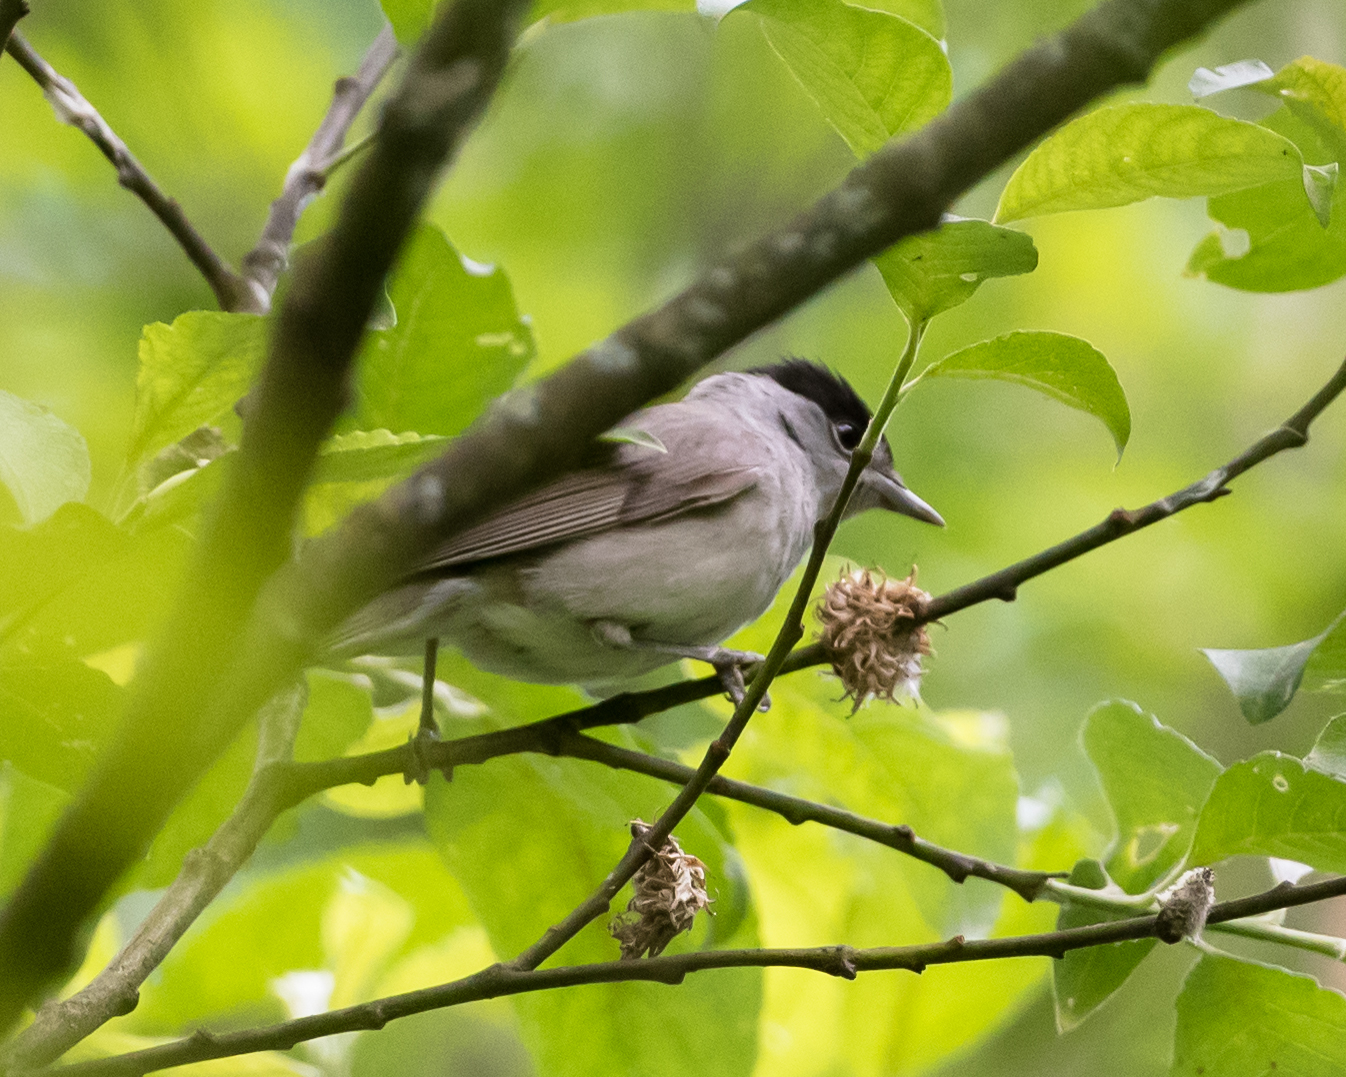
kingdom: Animalia
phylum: Chordata
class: Aves
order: Passeriformes
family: Sylviidae
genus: Sylvia
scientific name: Sylvia atricapilla
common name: Eurasian blackcap
